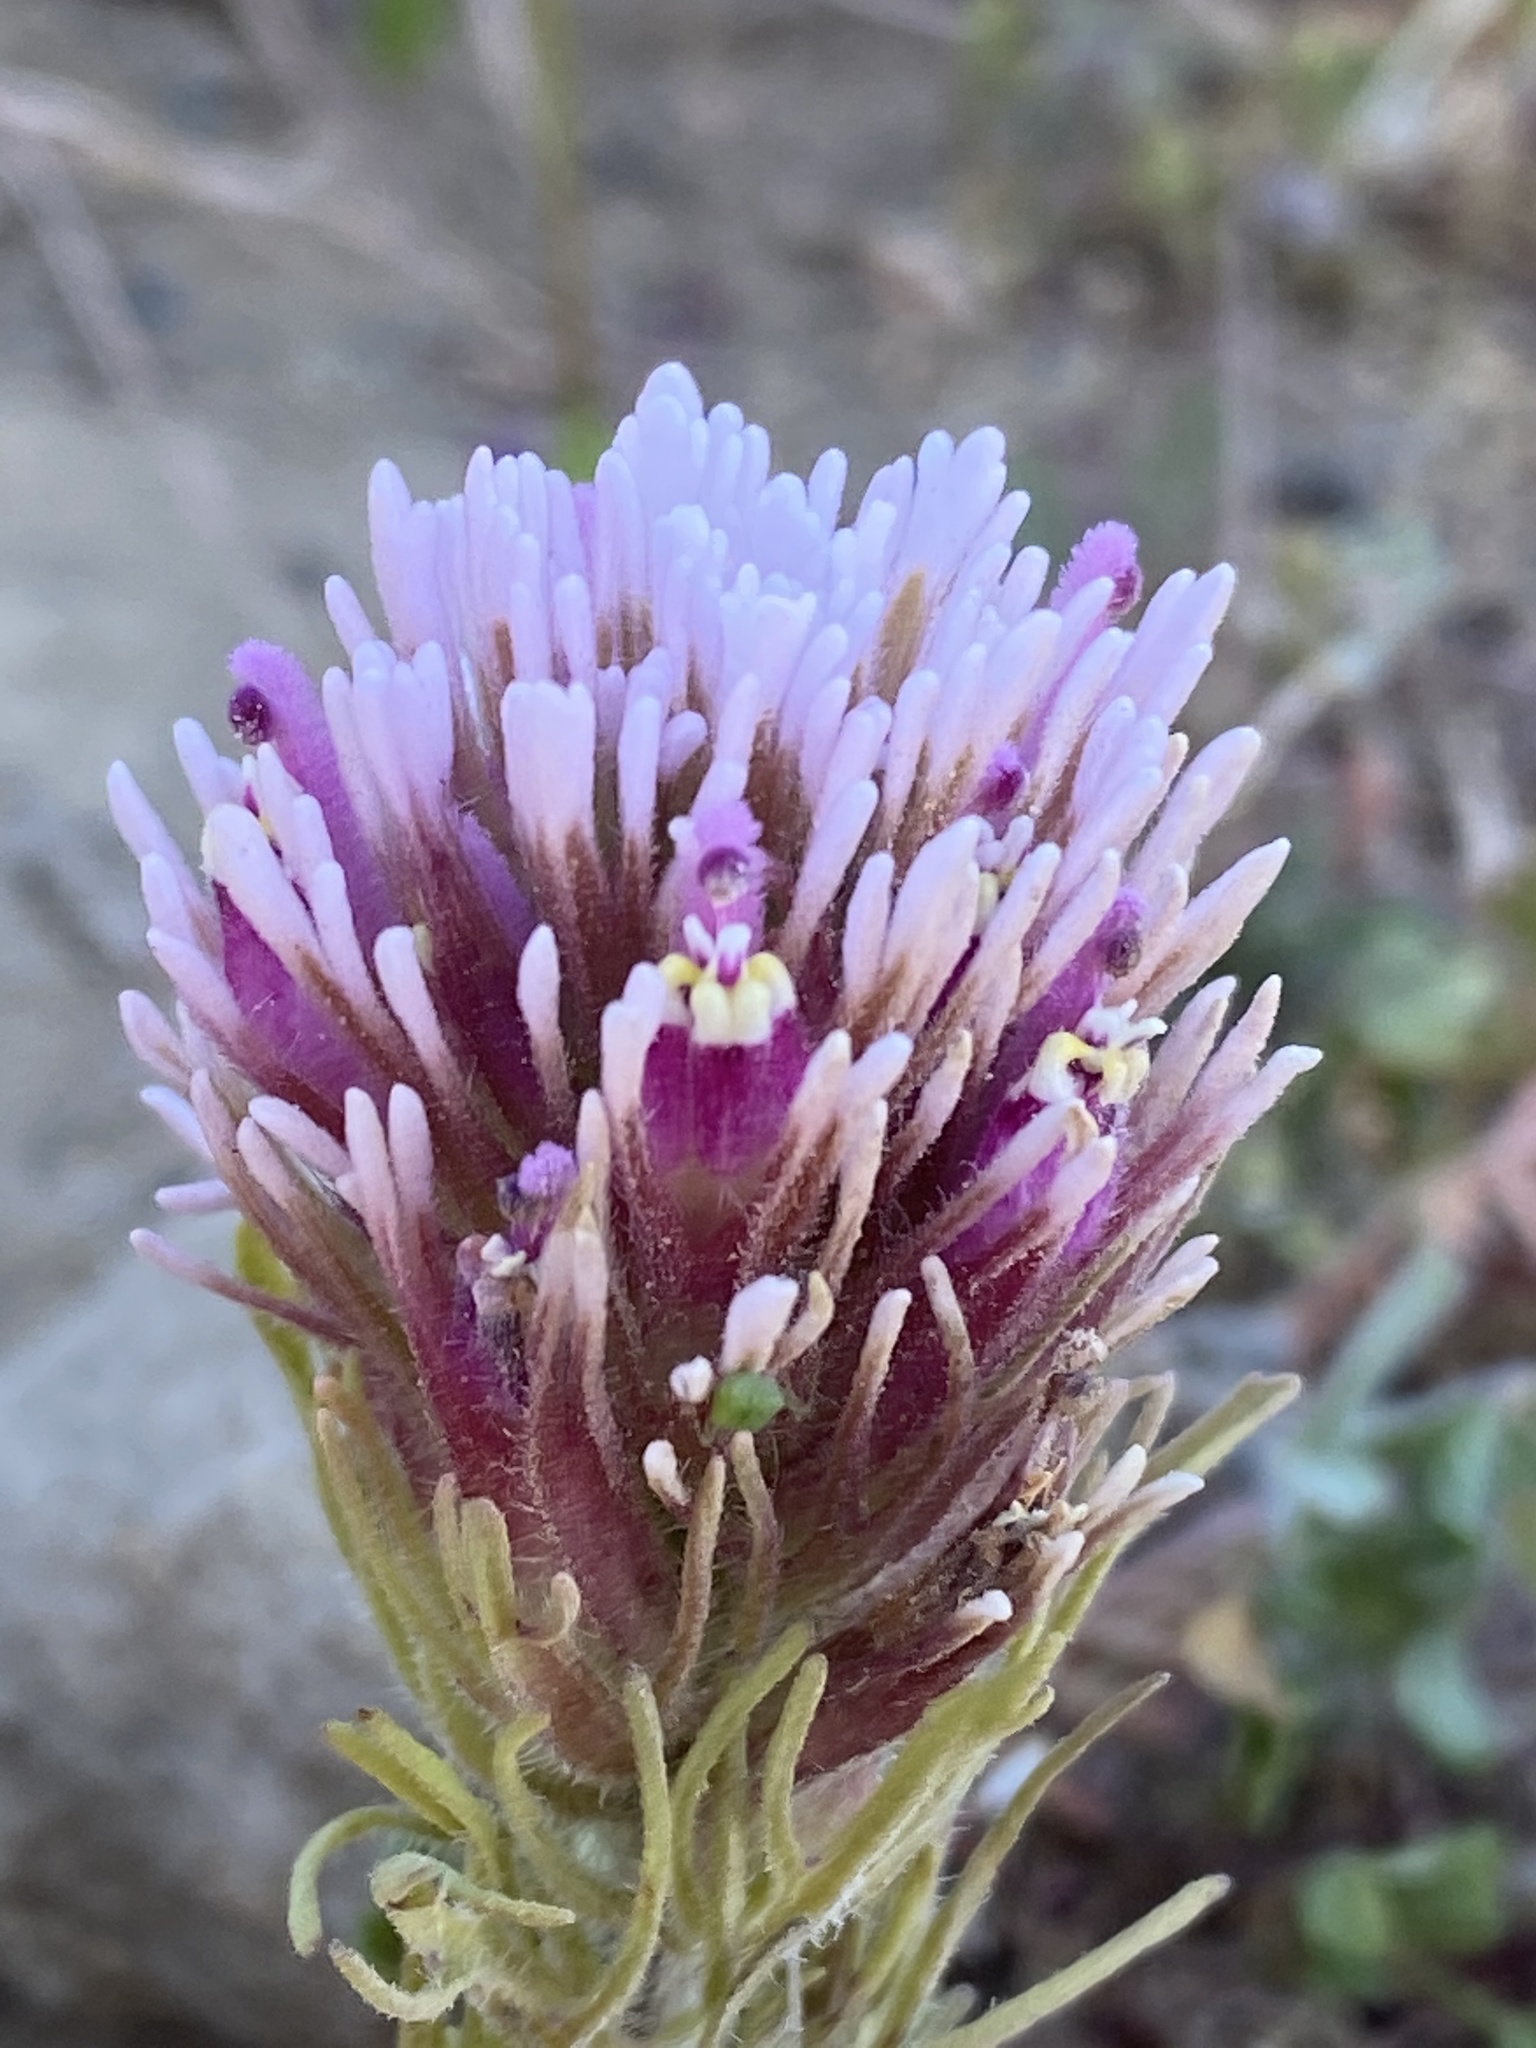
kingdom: Plantae
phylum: Tracheophyta
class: Magnoliopsida
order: Lamiales
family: Orobanchaceae
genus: Castilleja
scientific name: Castilleja exserta
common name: Purple owl-clover
